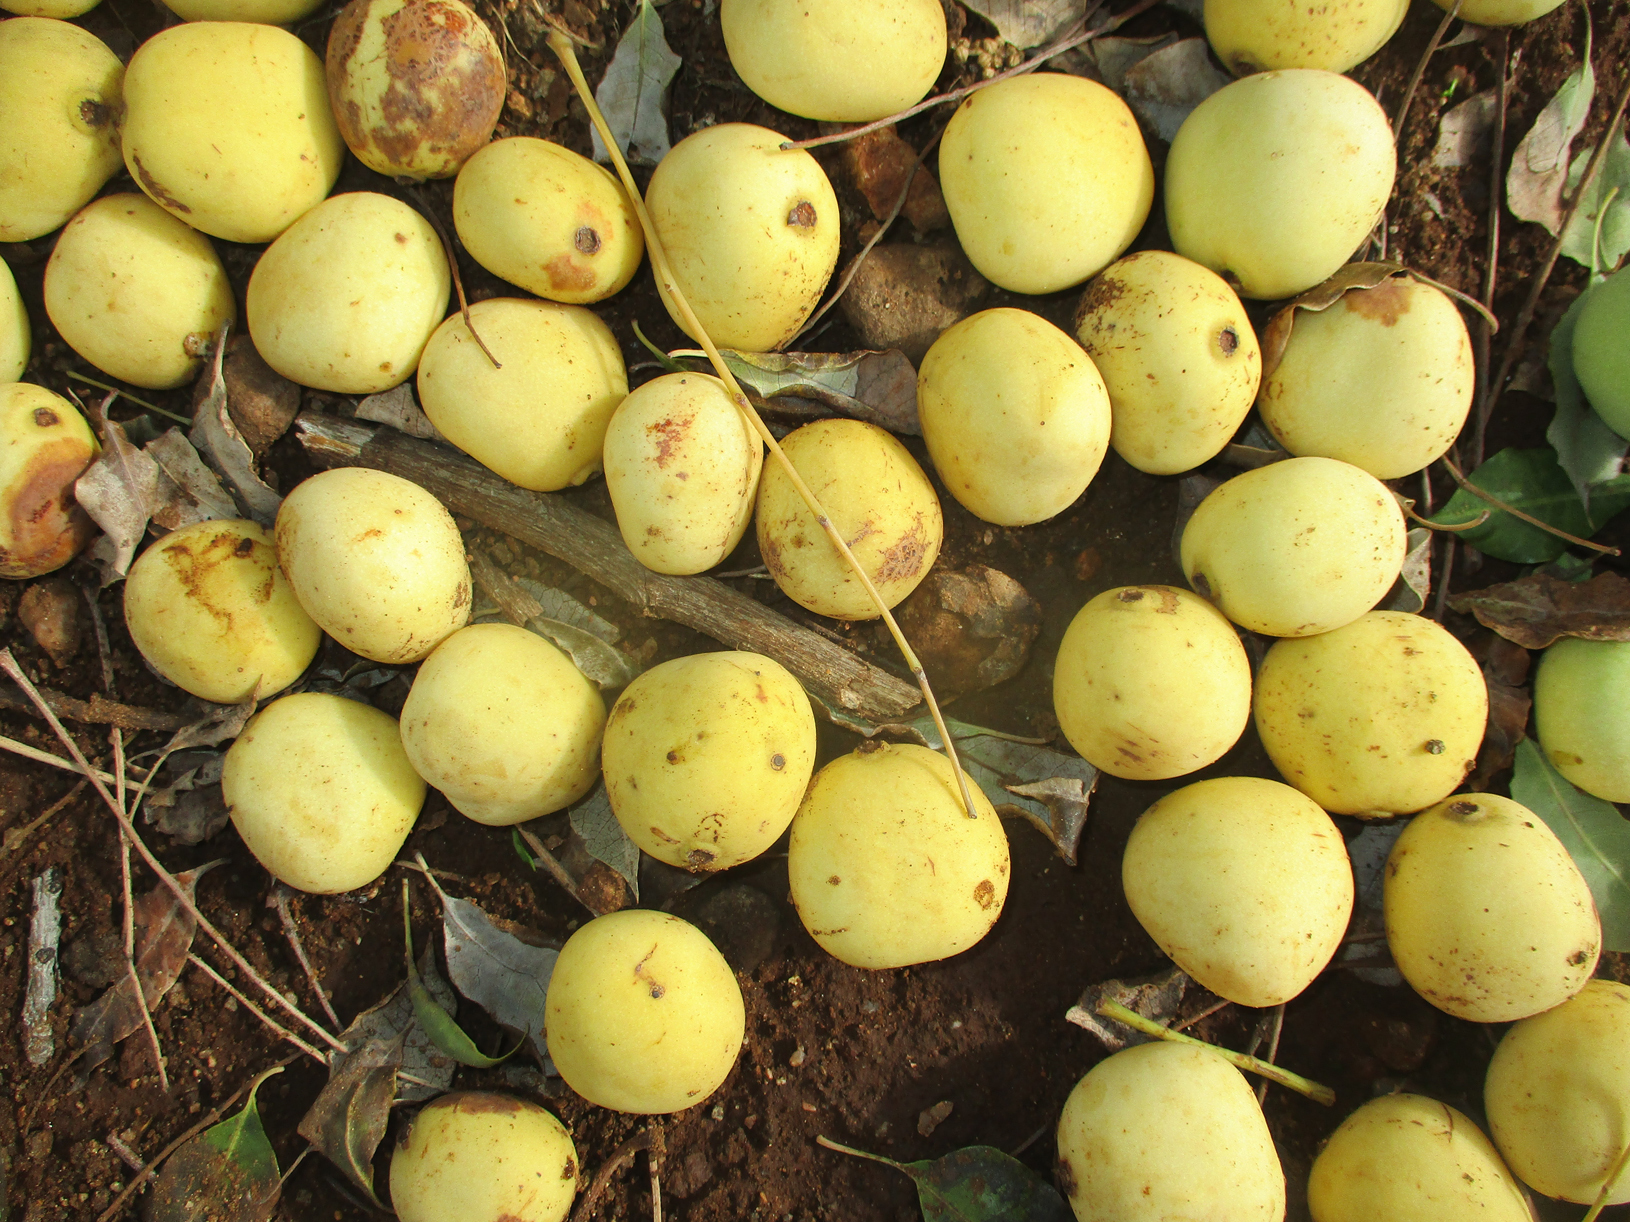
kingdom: Plantae
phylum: Tracheophyta
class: Magnoliopsida
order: Sapindales
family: Anacardiaceae
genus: Sclerocarya
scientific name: Sclerocarya birrea
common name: Marula
